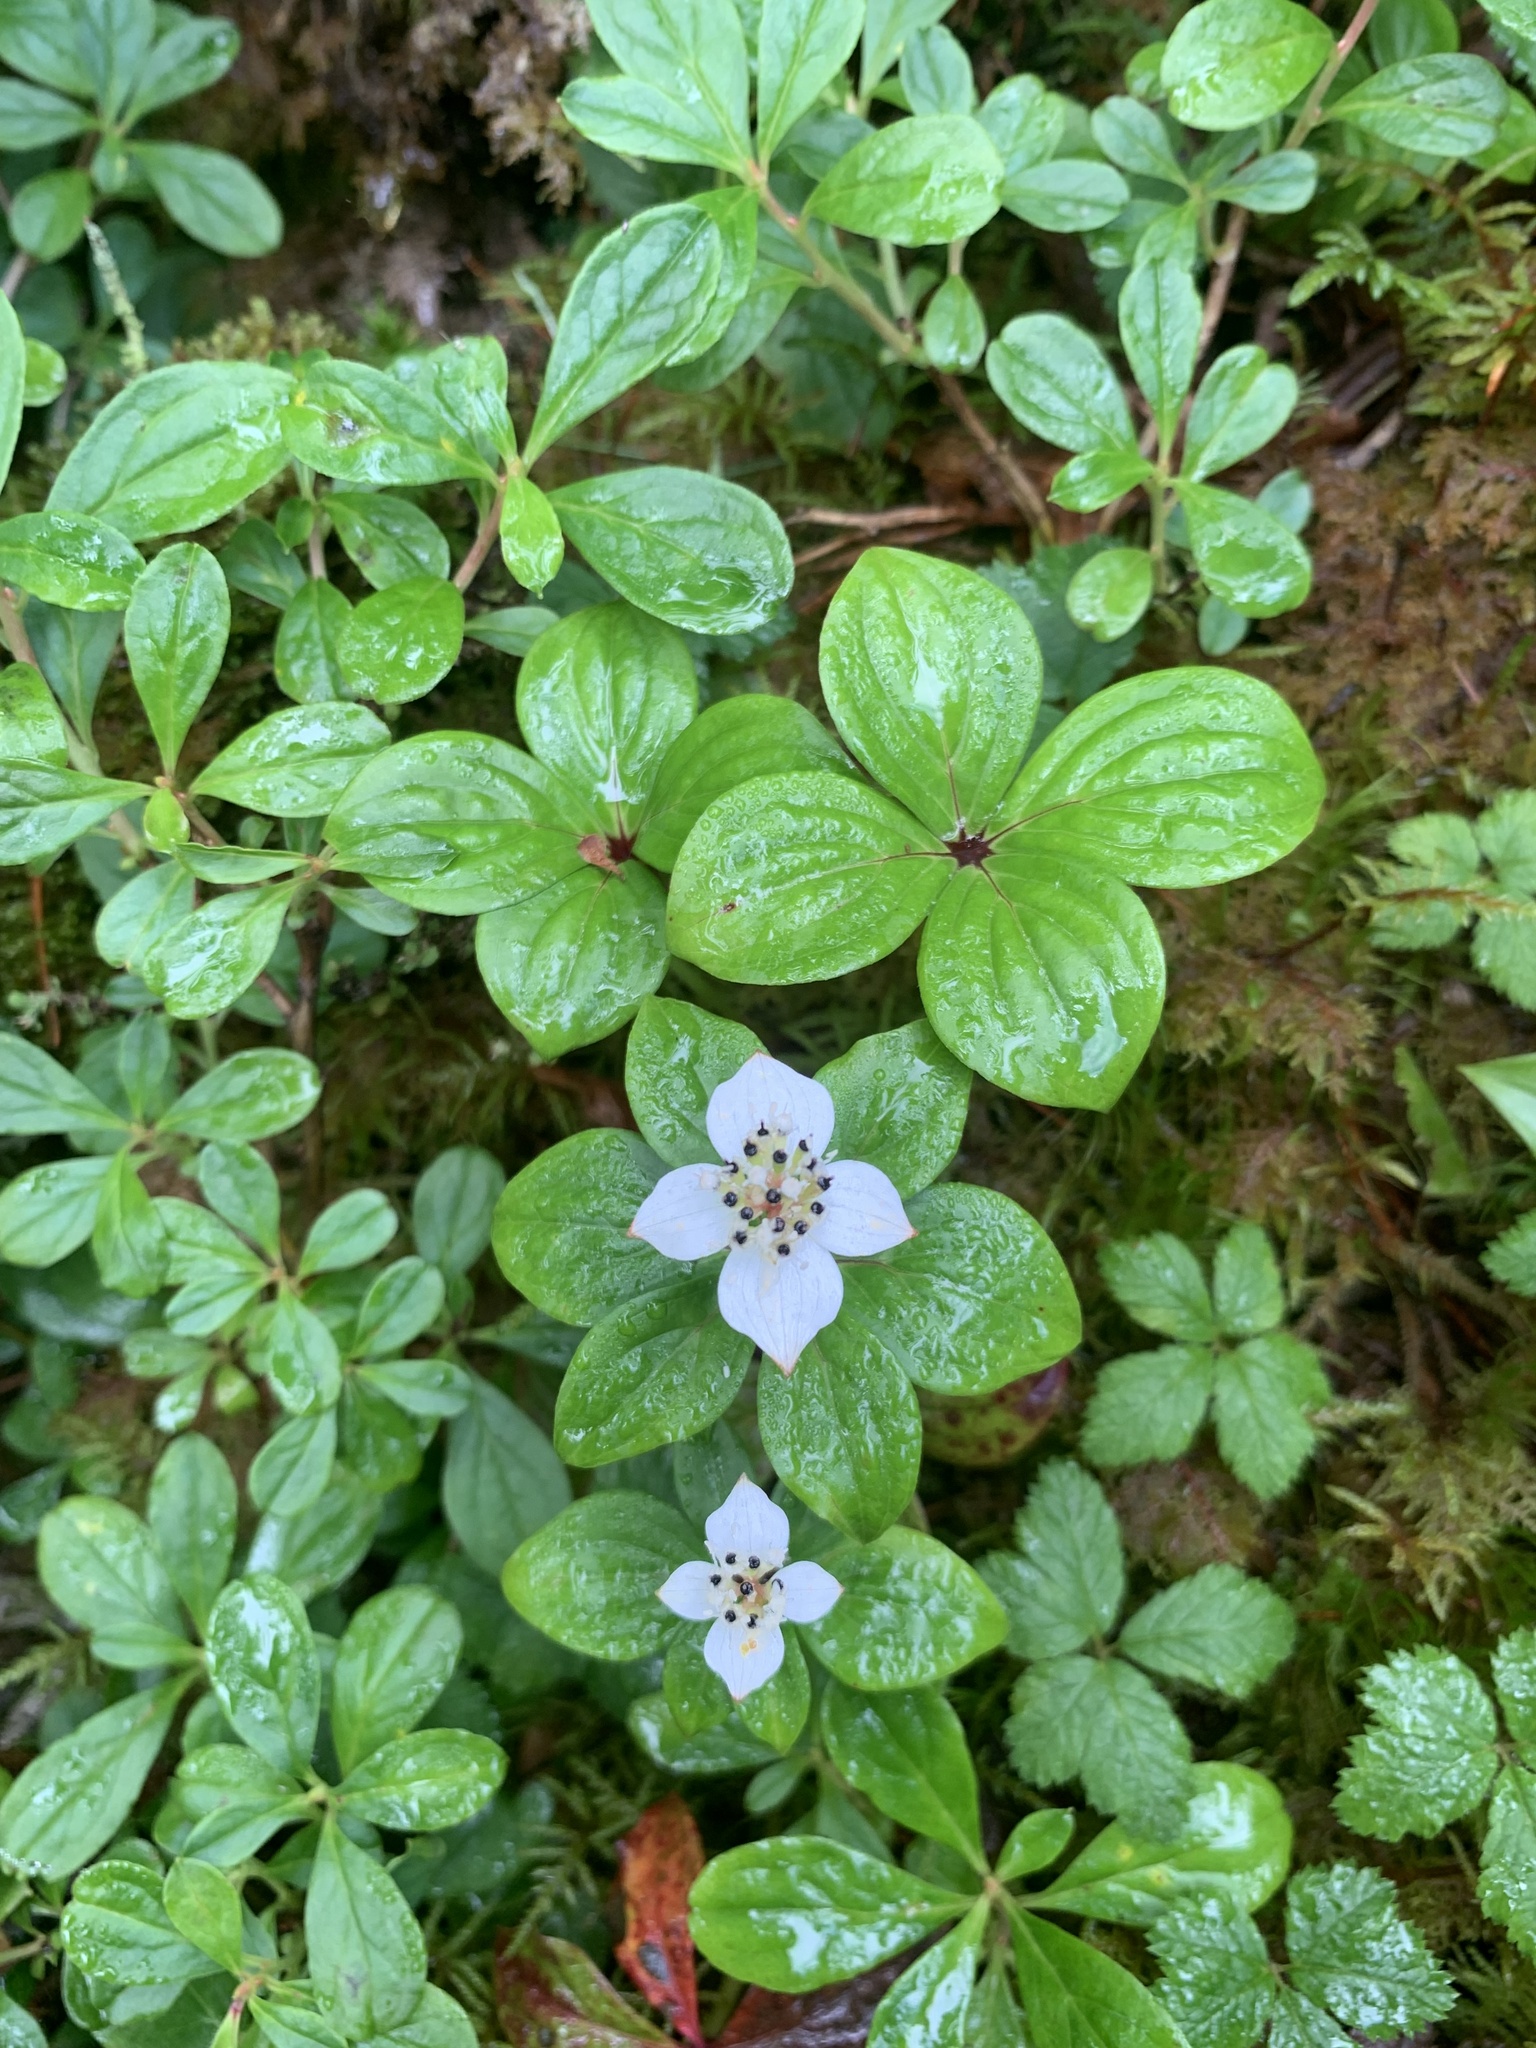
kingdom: Plantae
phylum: Tracheophyta
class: Magnoliopsida
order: Cornales
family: Cornaceae
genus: Cornus
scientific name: Cornus canadensis
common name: Creeping dogwood
